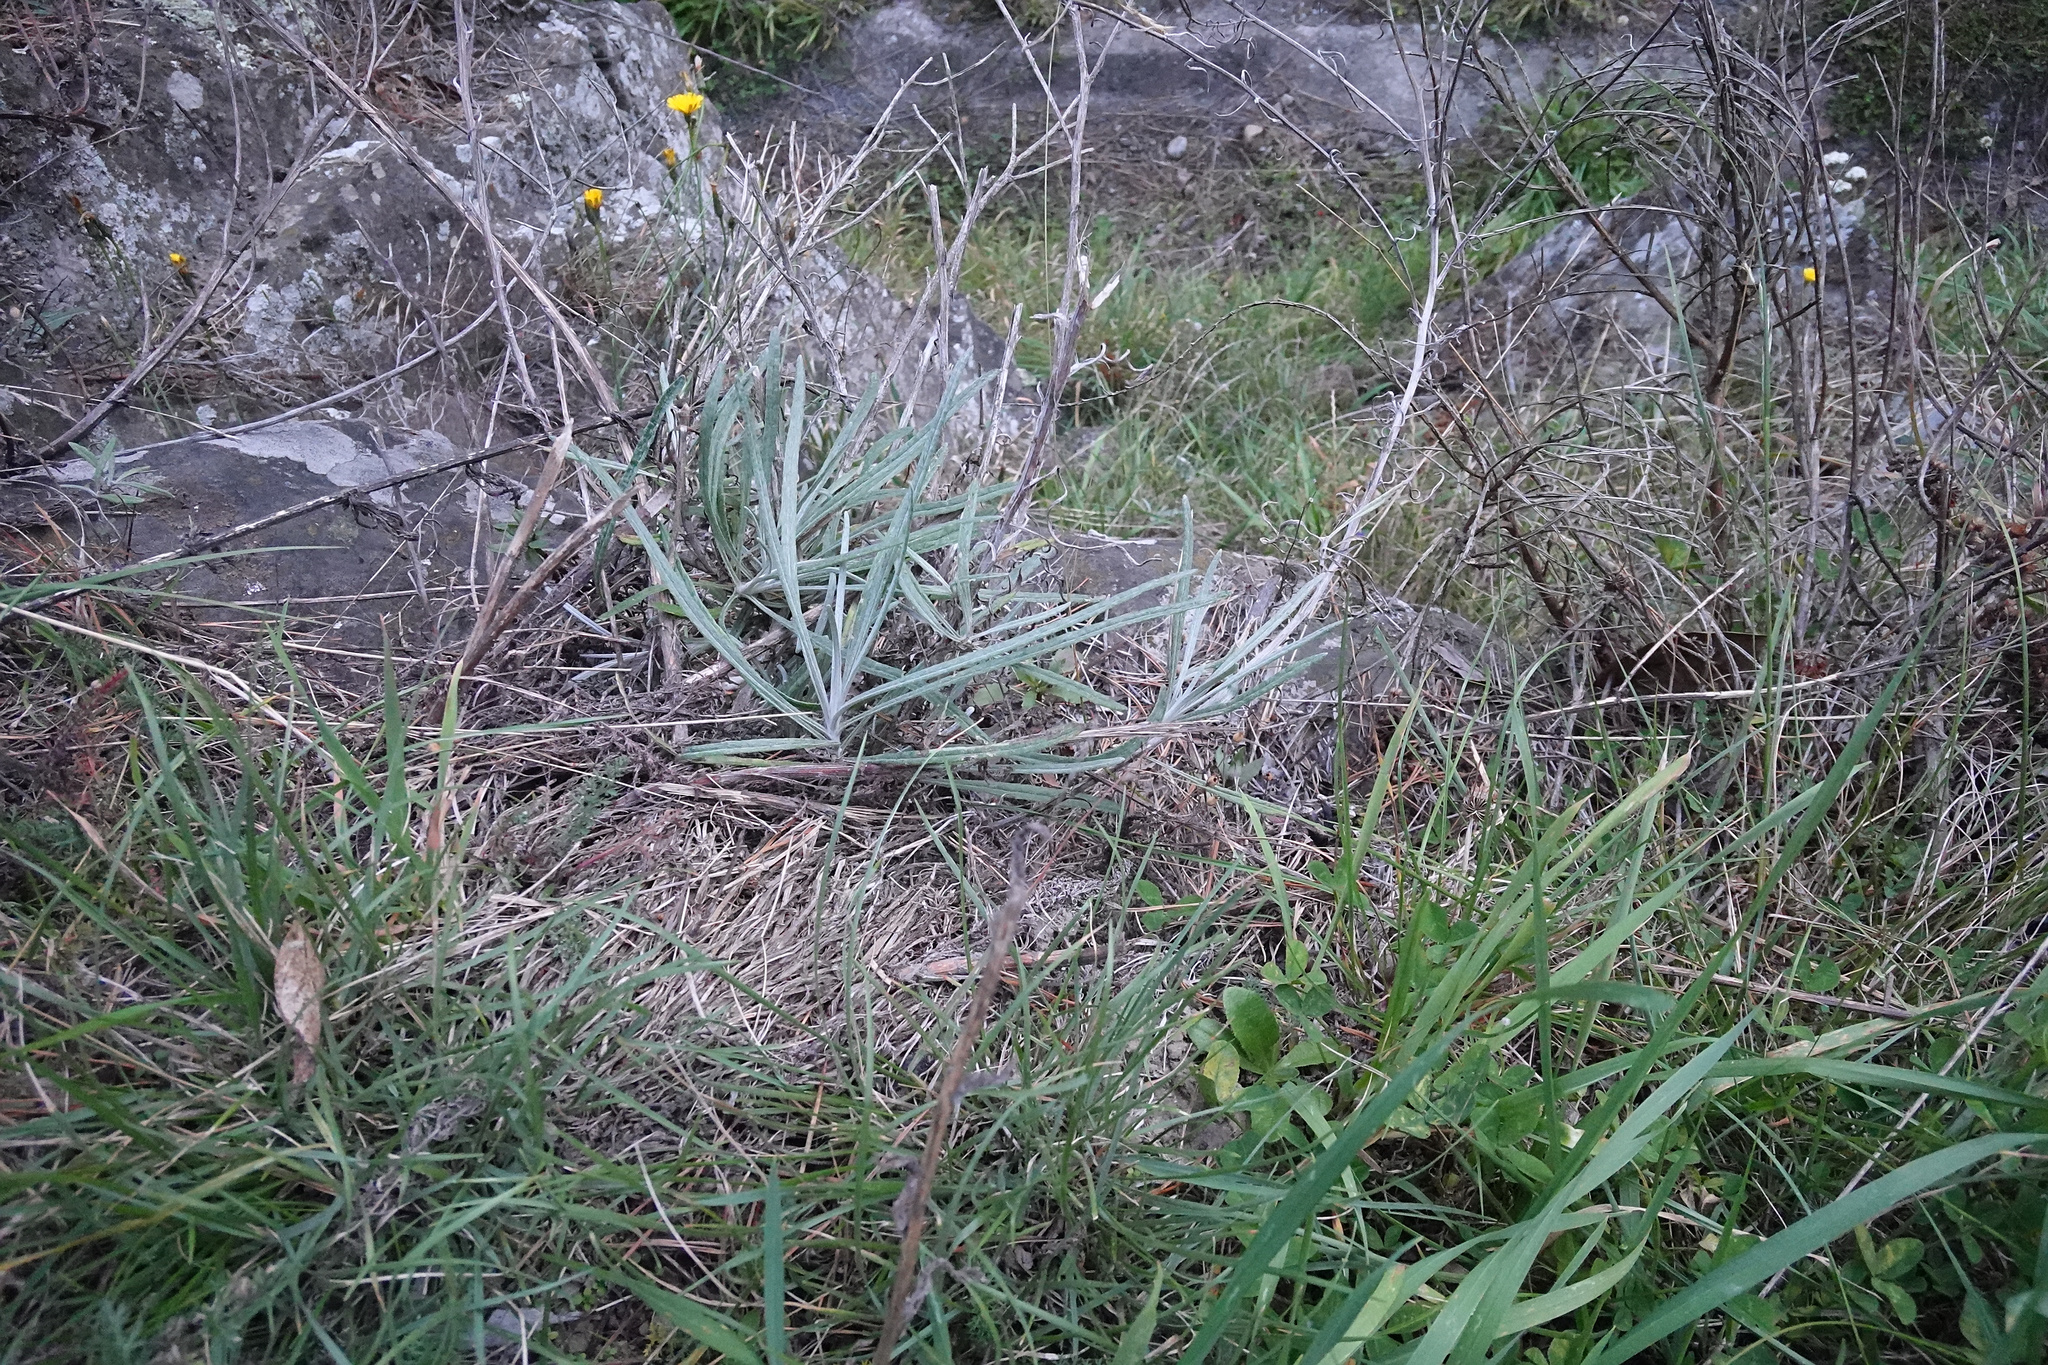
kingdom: Plantae
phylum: Tracheophyta
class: Magnoliopsida
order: Asterales
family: Asteraceae
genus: Senecio
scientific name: Senecio quadridentatus
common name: Cotton fireweed
